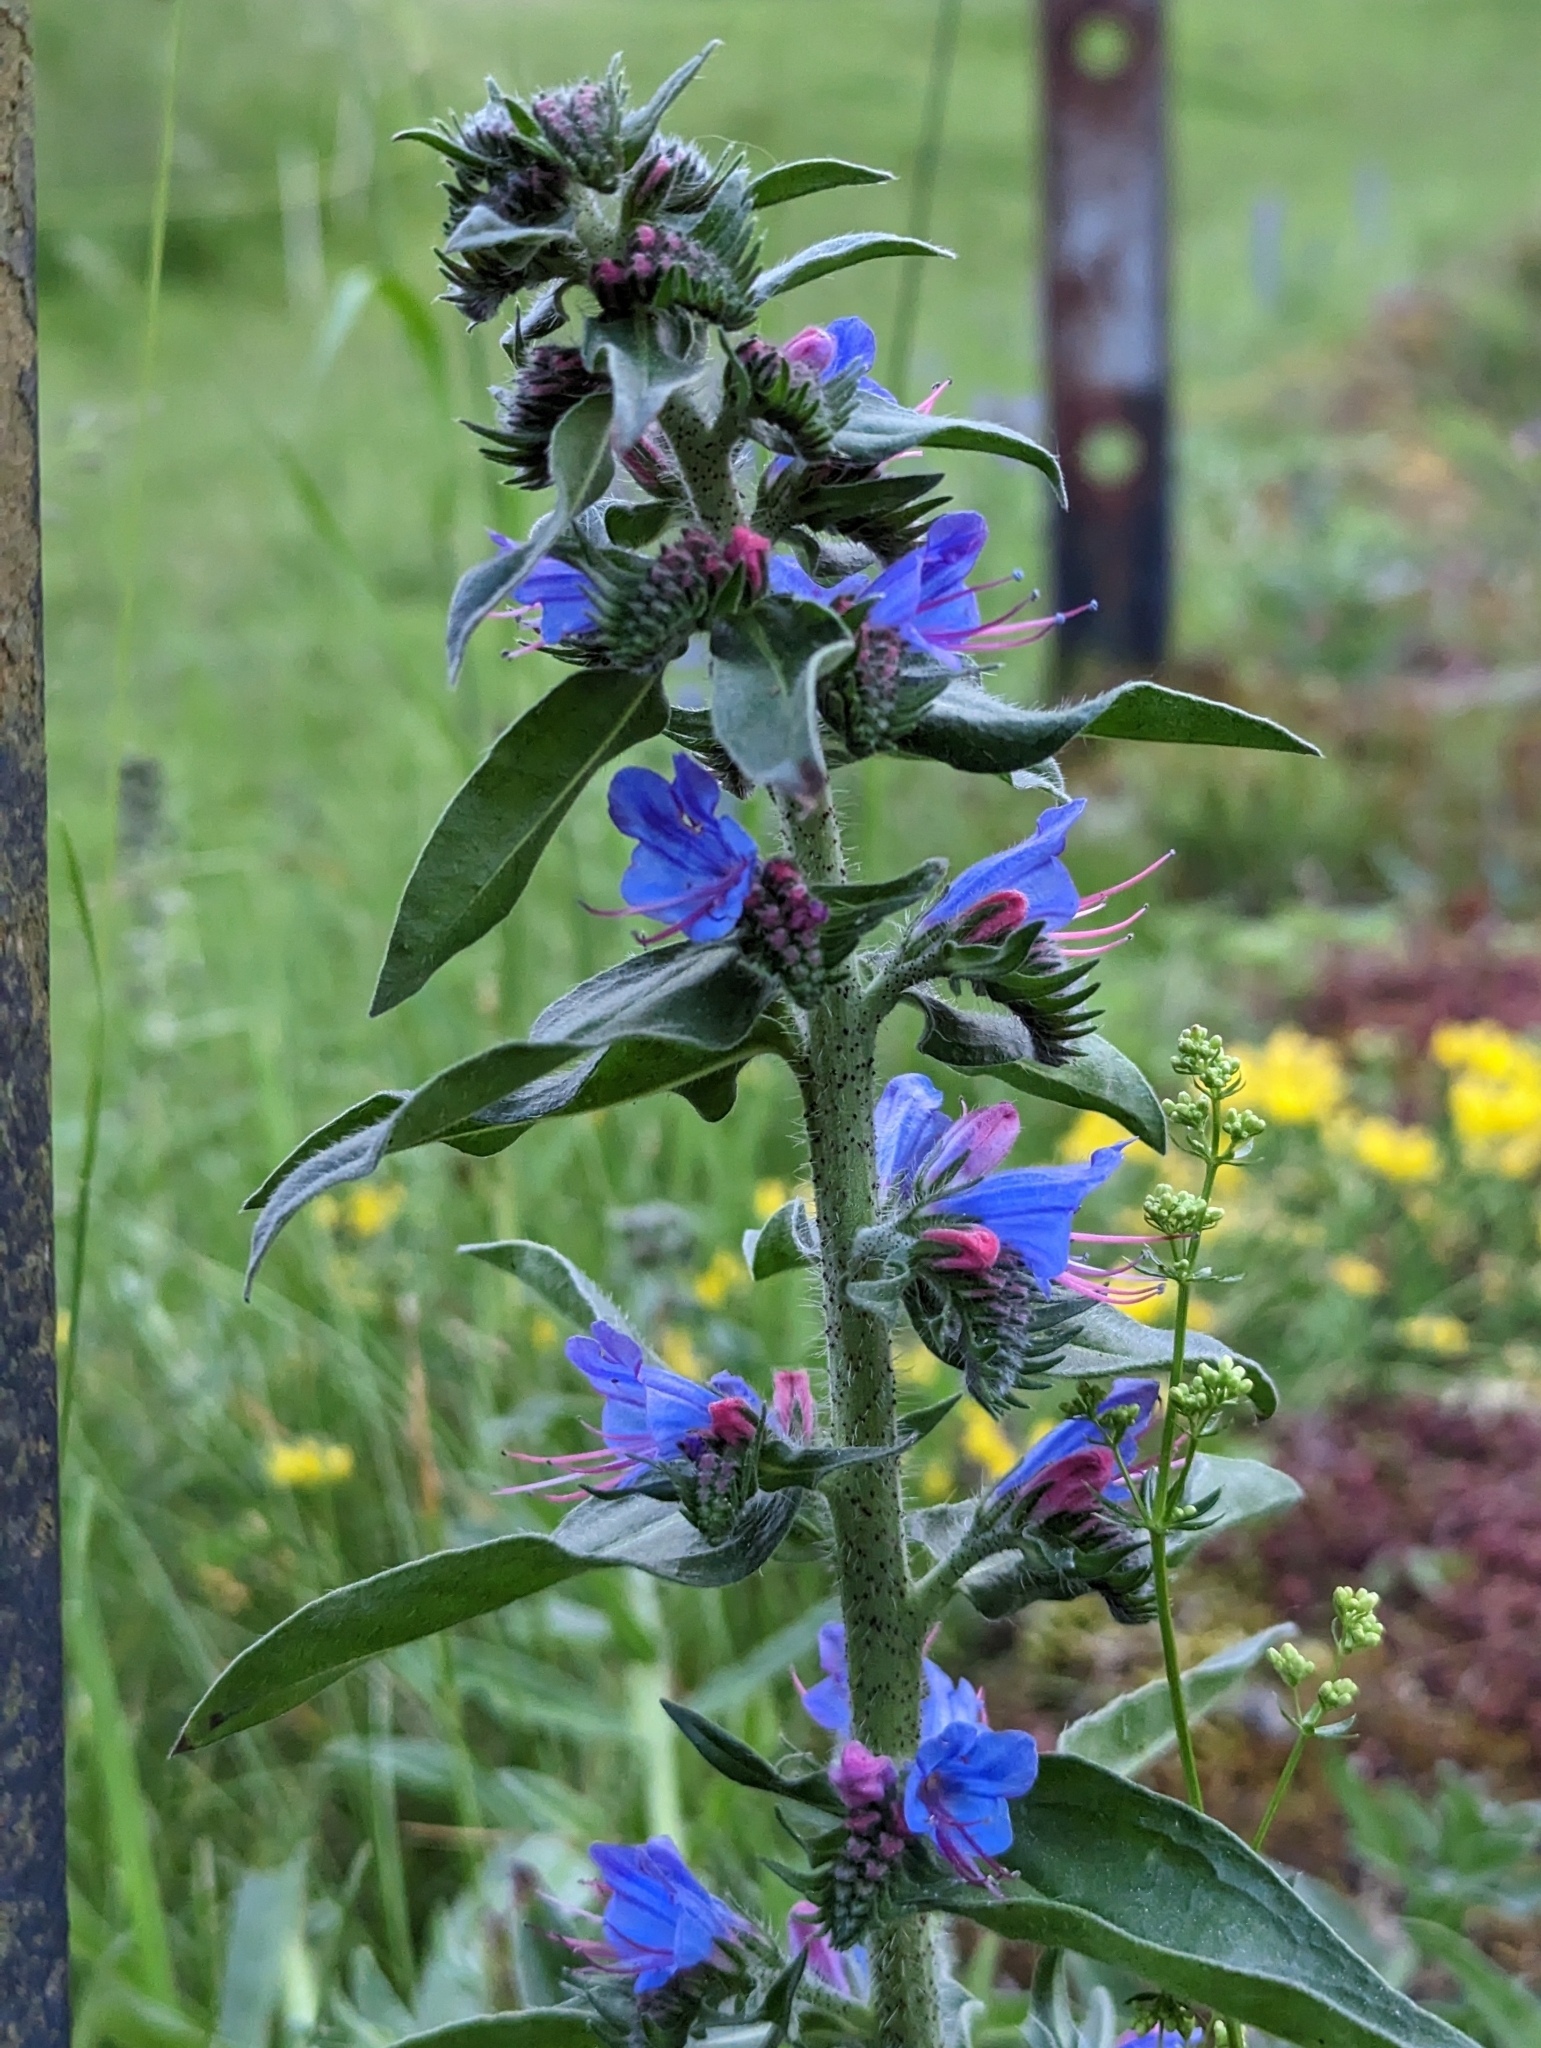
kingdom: Plantae
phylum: Tracheophyta
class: Magnoliopsida
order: Boraginales
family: Boraginaceae
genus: Echium
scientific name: Echium vulgare
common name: Common viper's bugloss
